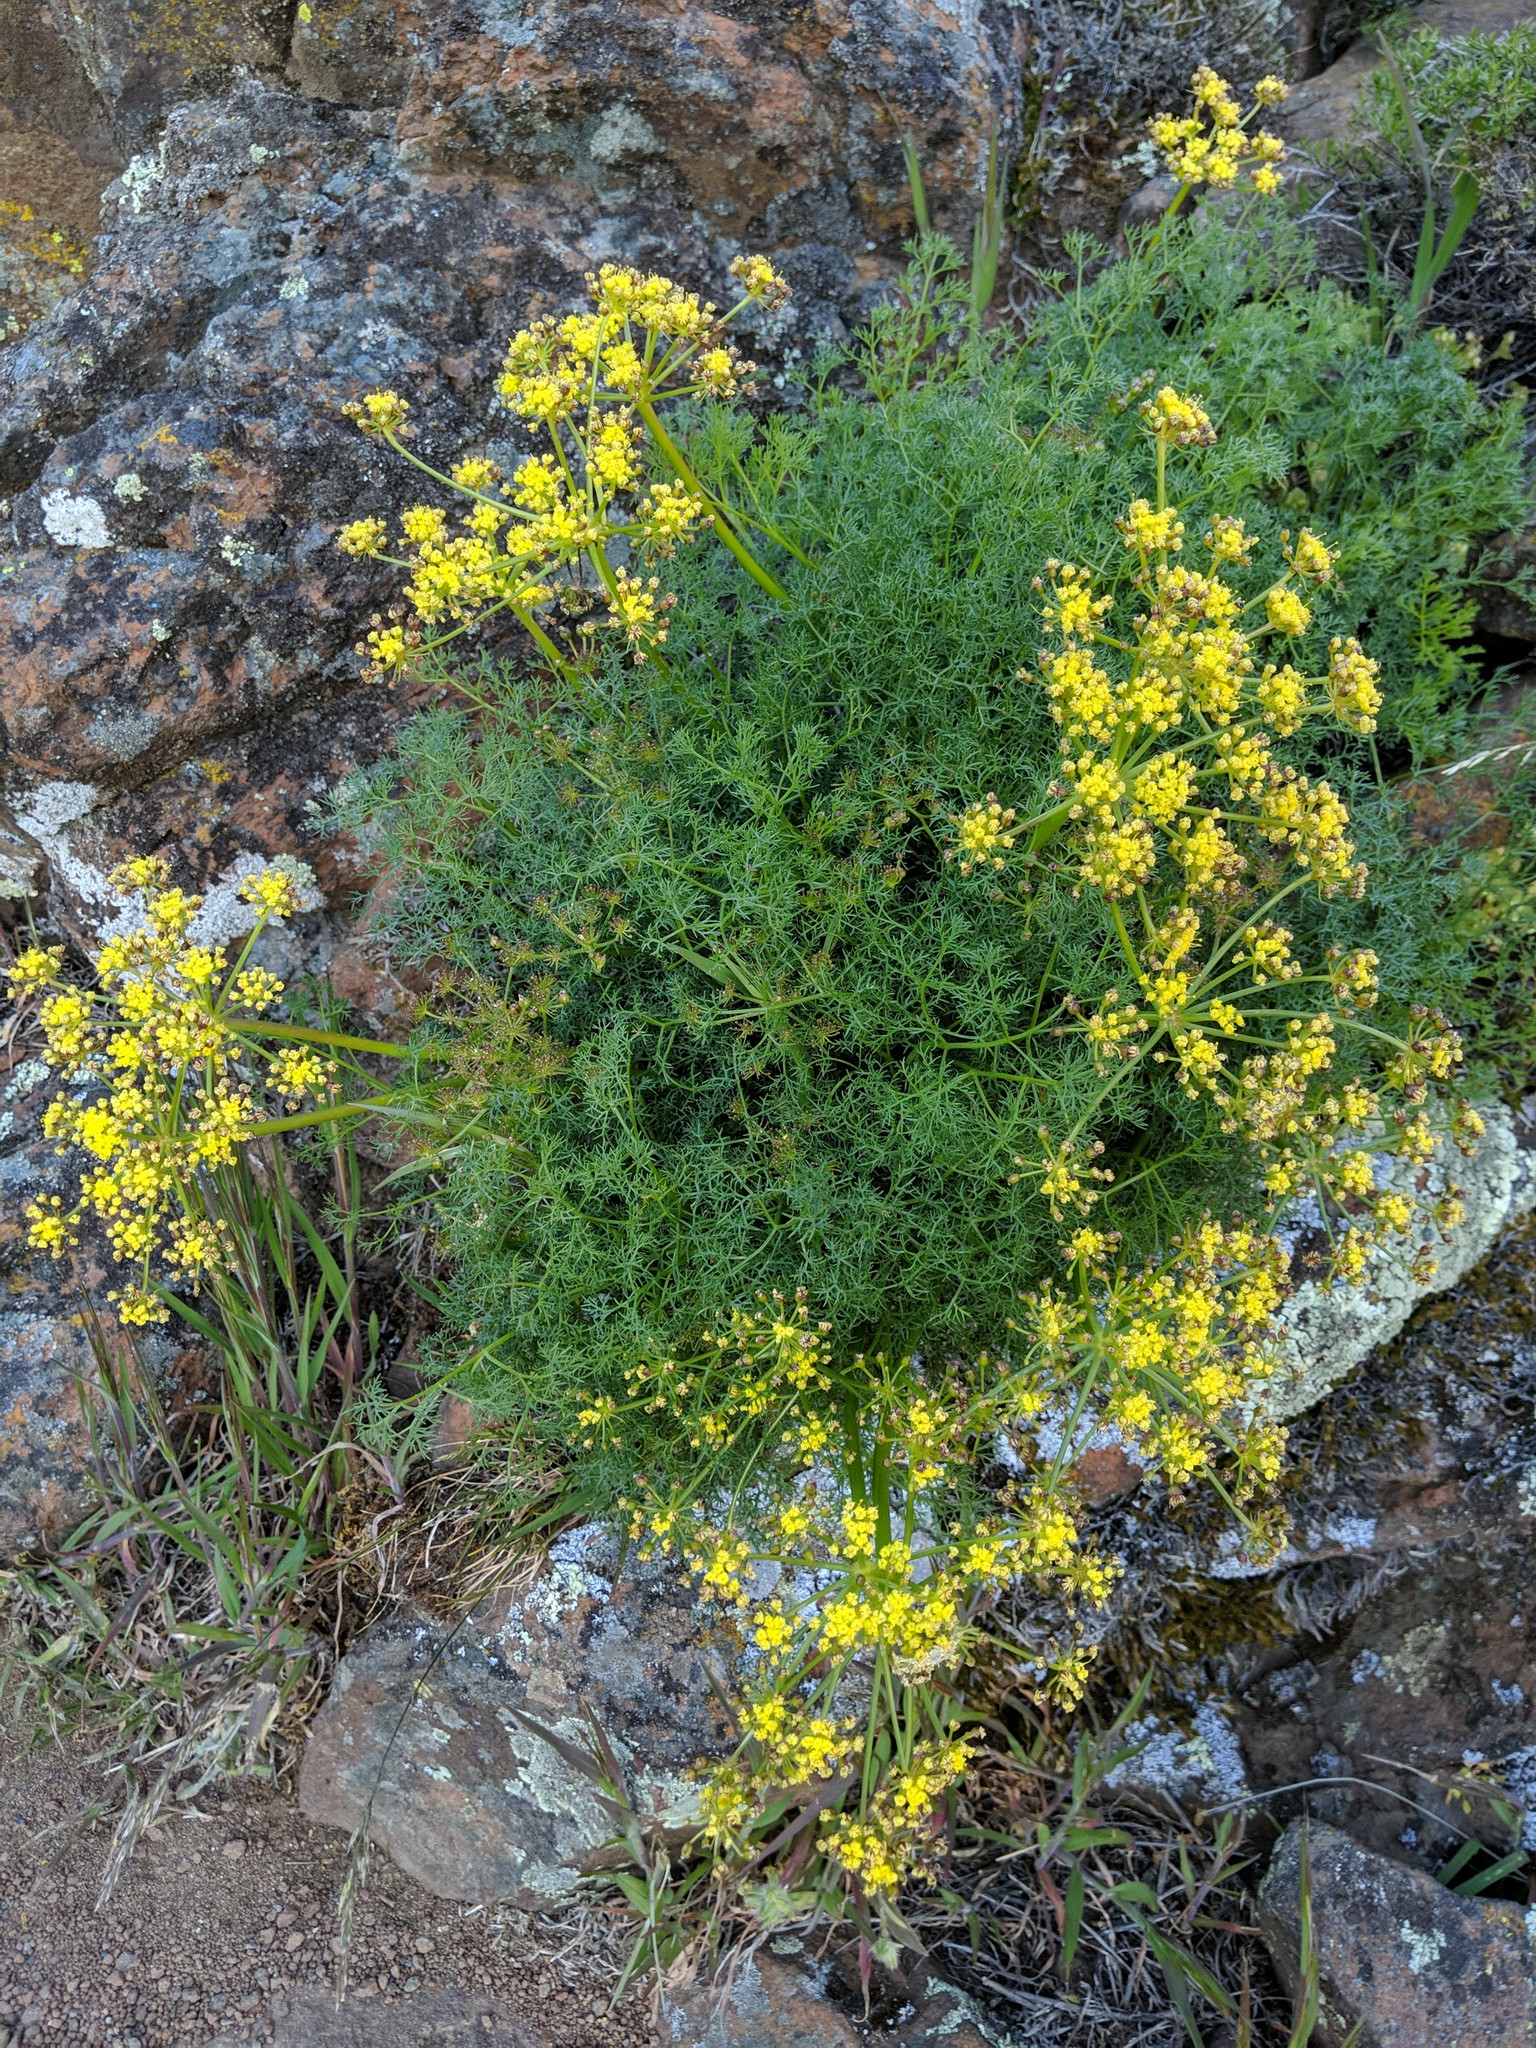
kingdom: Plantae
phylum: Tracheophyta
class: Magnoliopsida
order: Apiales
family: Apiaceae
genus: Lomatium
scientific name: Lomatium klickitatense
